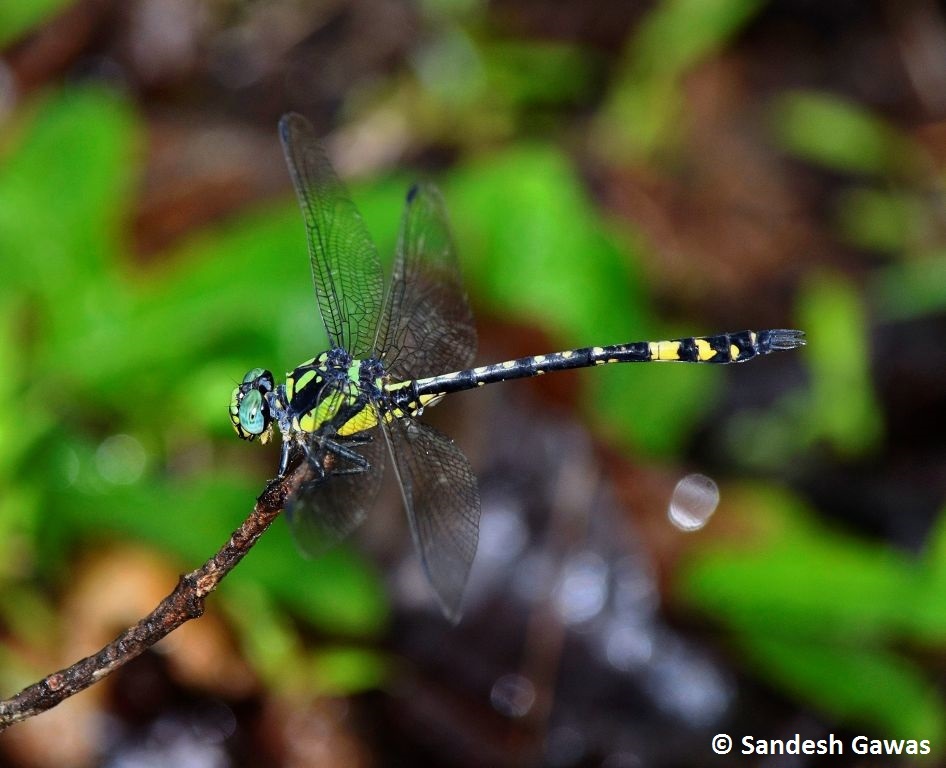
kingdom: Animalia
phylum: Arthropoda
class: Insecta
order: Odonata
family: Gomphidae
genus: Megalogomphus
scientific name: Megalogomphus hannyngtoni
